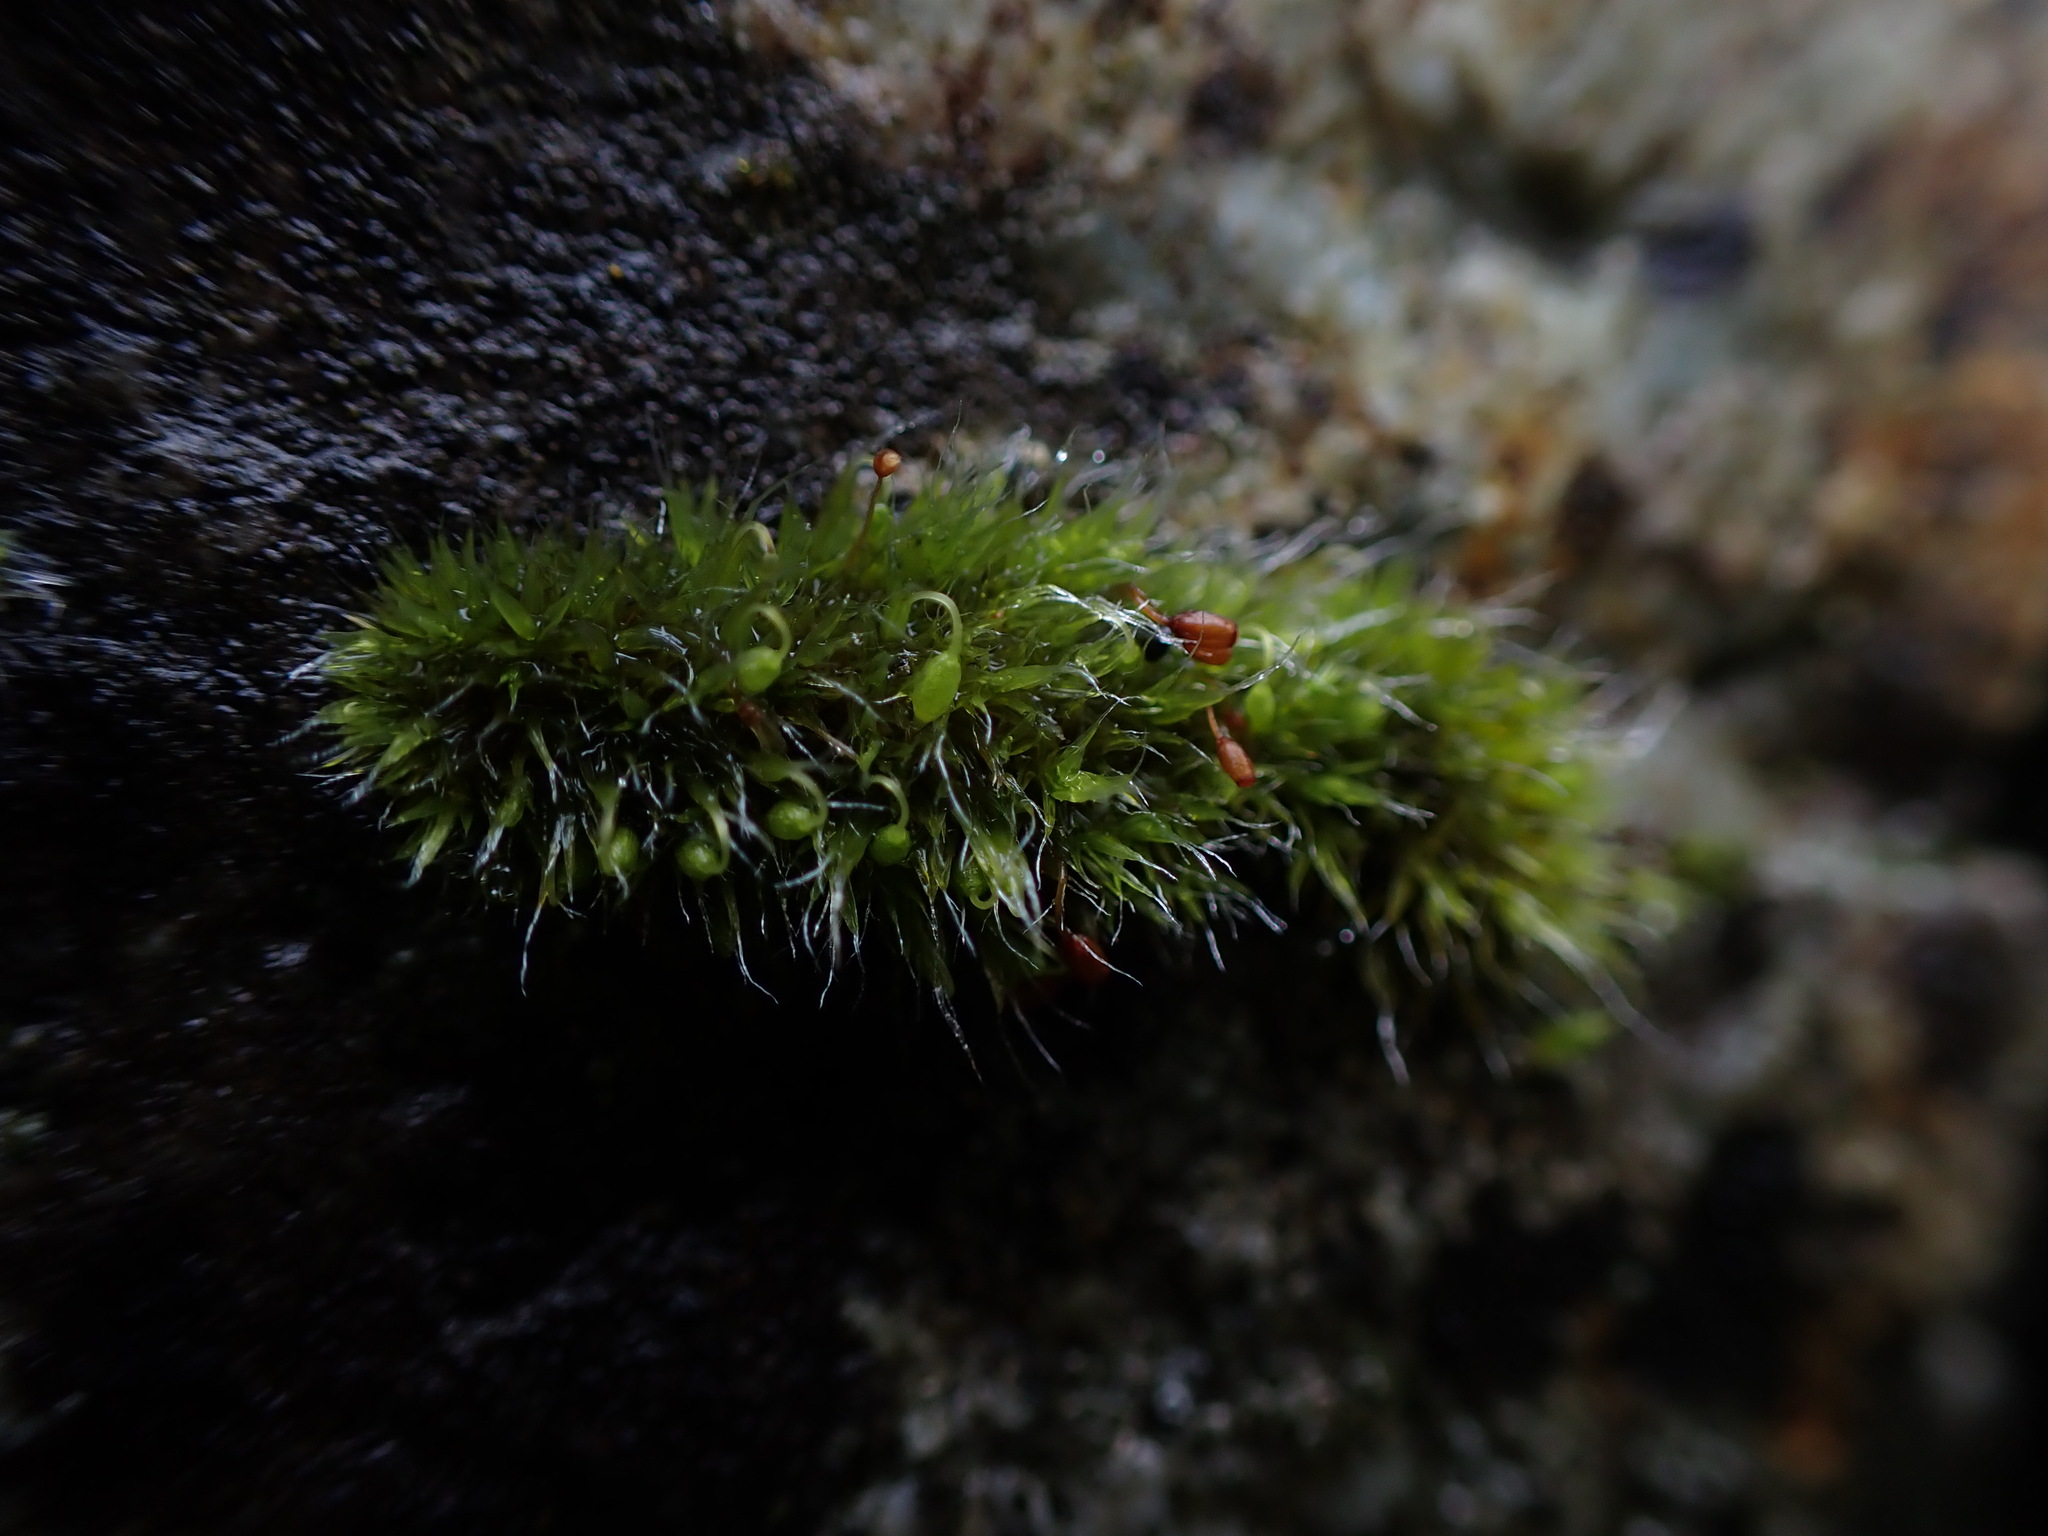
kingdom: Plantae
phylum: Bryophyta
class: Bryopsida
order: Grimmiales
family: Grimmiaceae
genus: Grimmia
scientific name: Grimmia pulvinata
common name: Grey-cushioned grimmia
